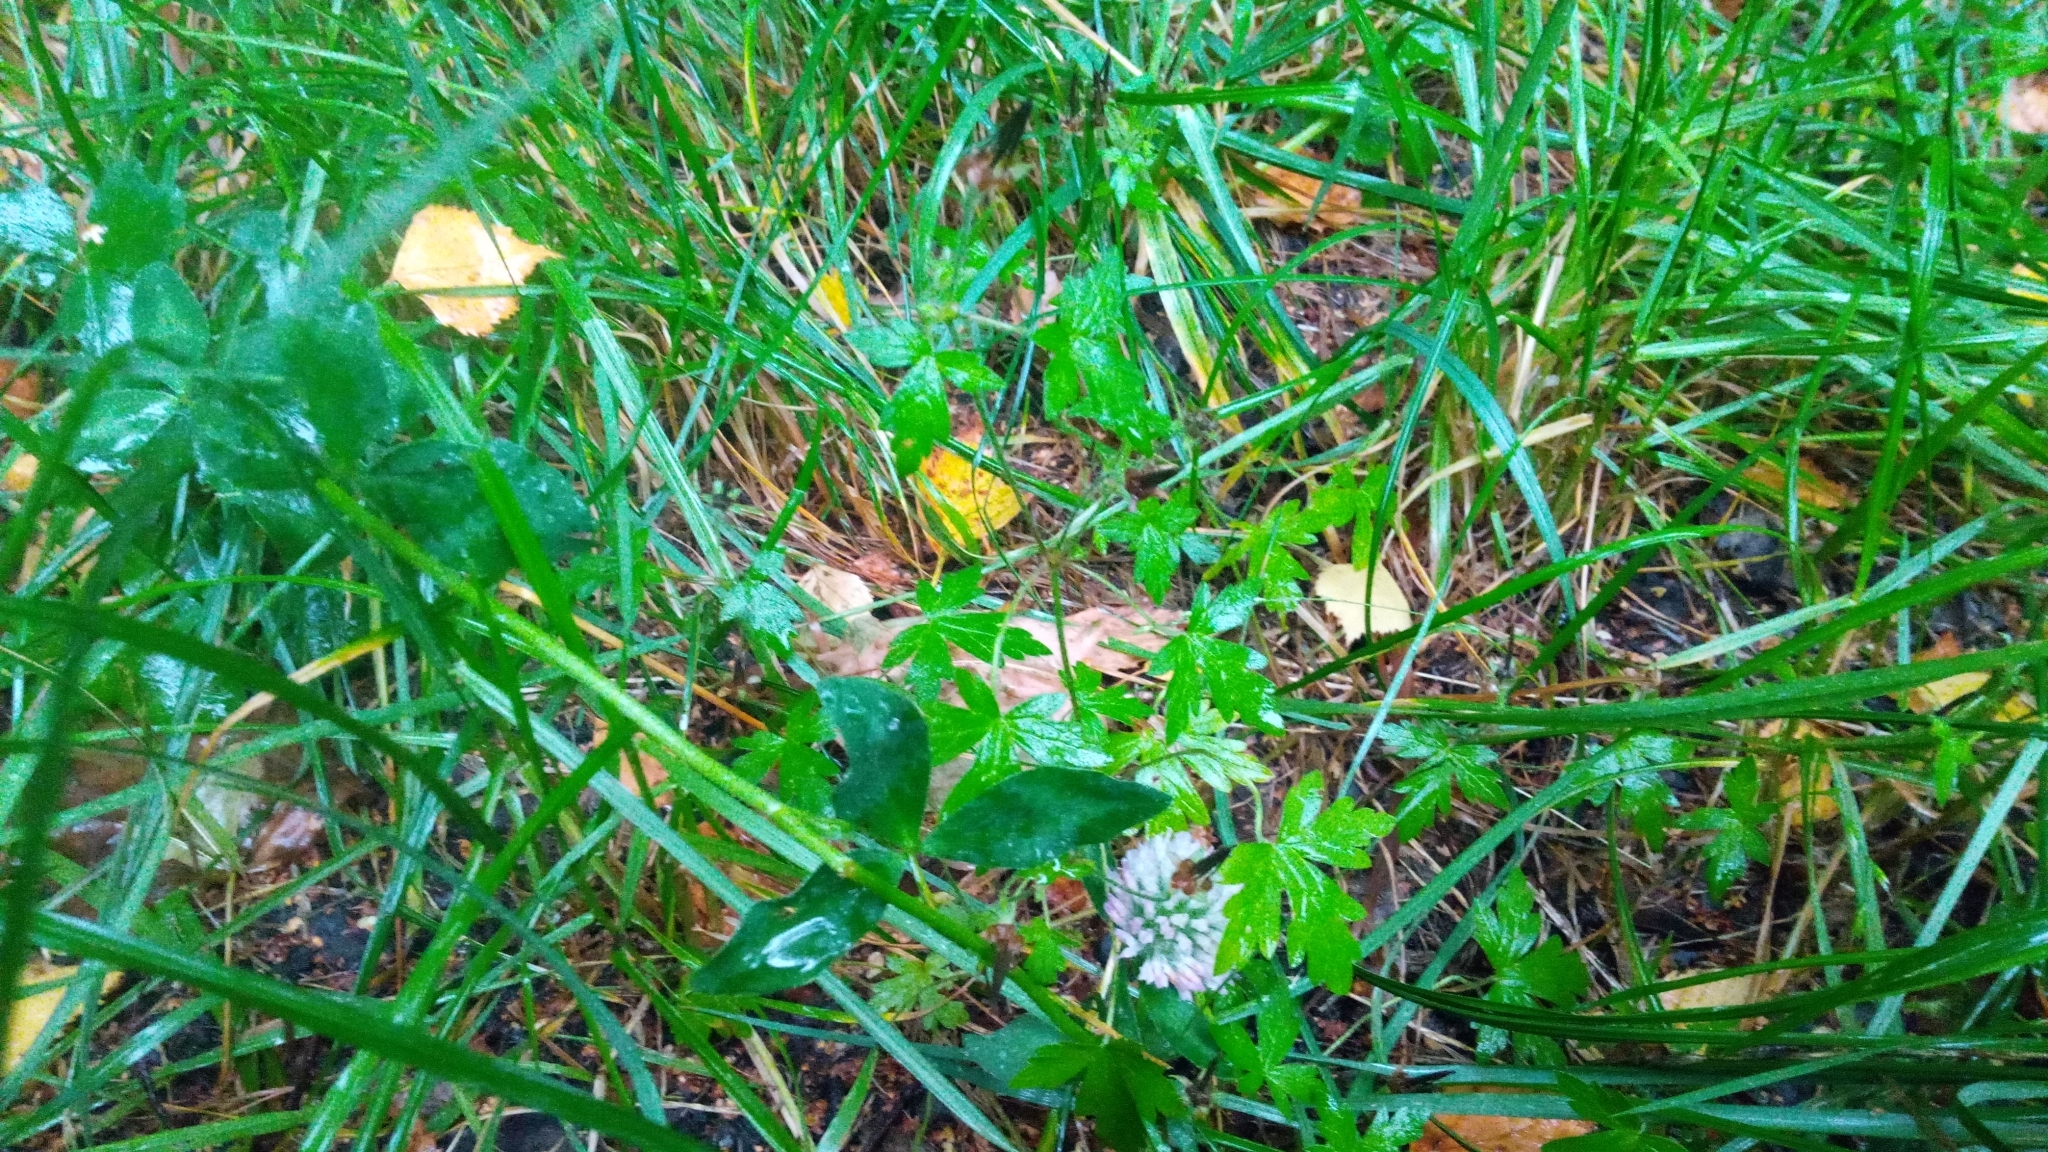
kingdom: Plantae
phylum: Tracheophyta
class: Magnoliopsida
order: Geraniales
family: Geraniaceae
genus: Geranium
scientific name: Geranium sibiricum
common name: Siberian crane's-bill
